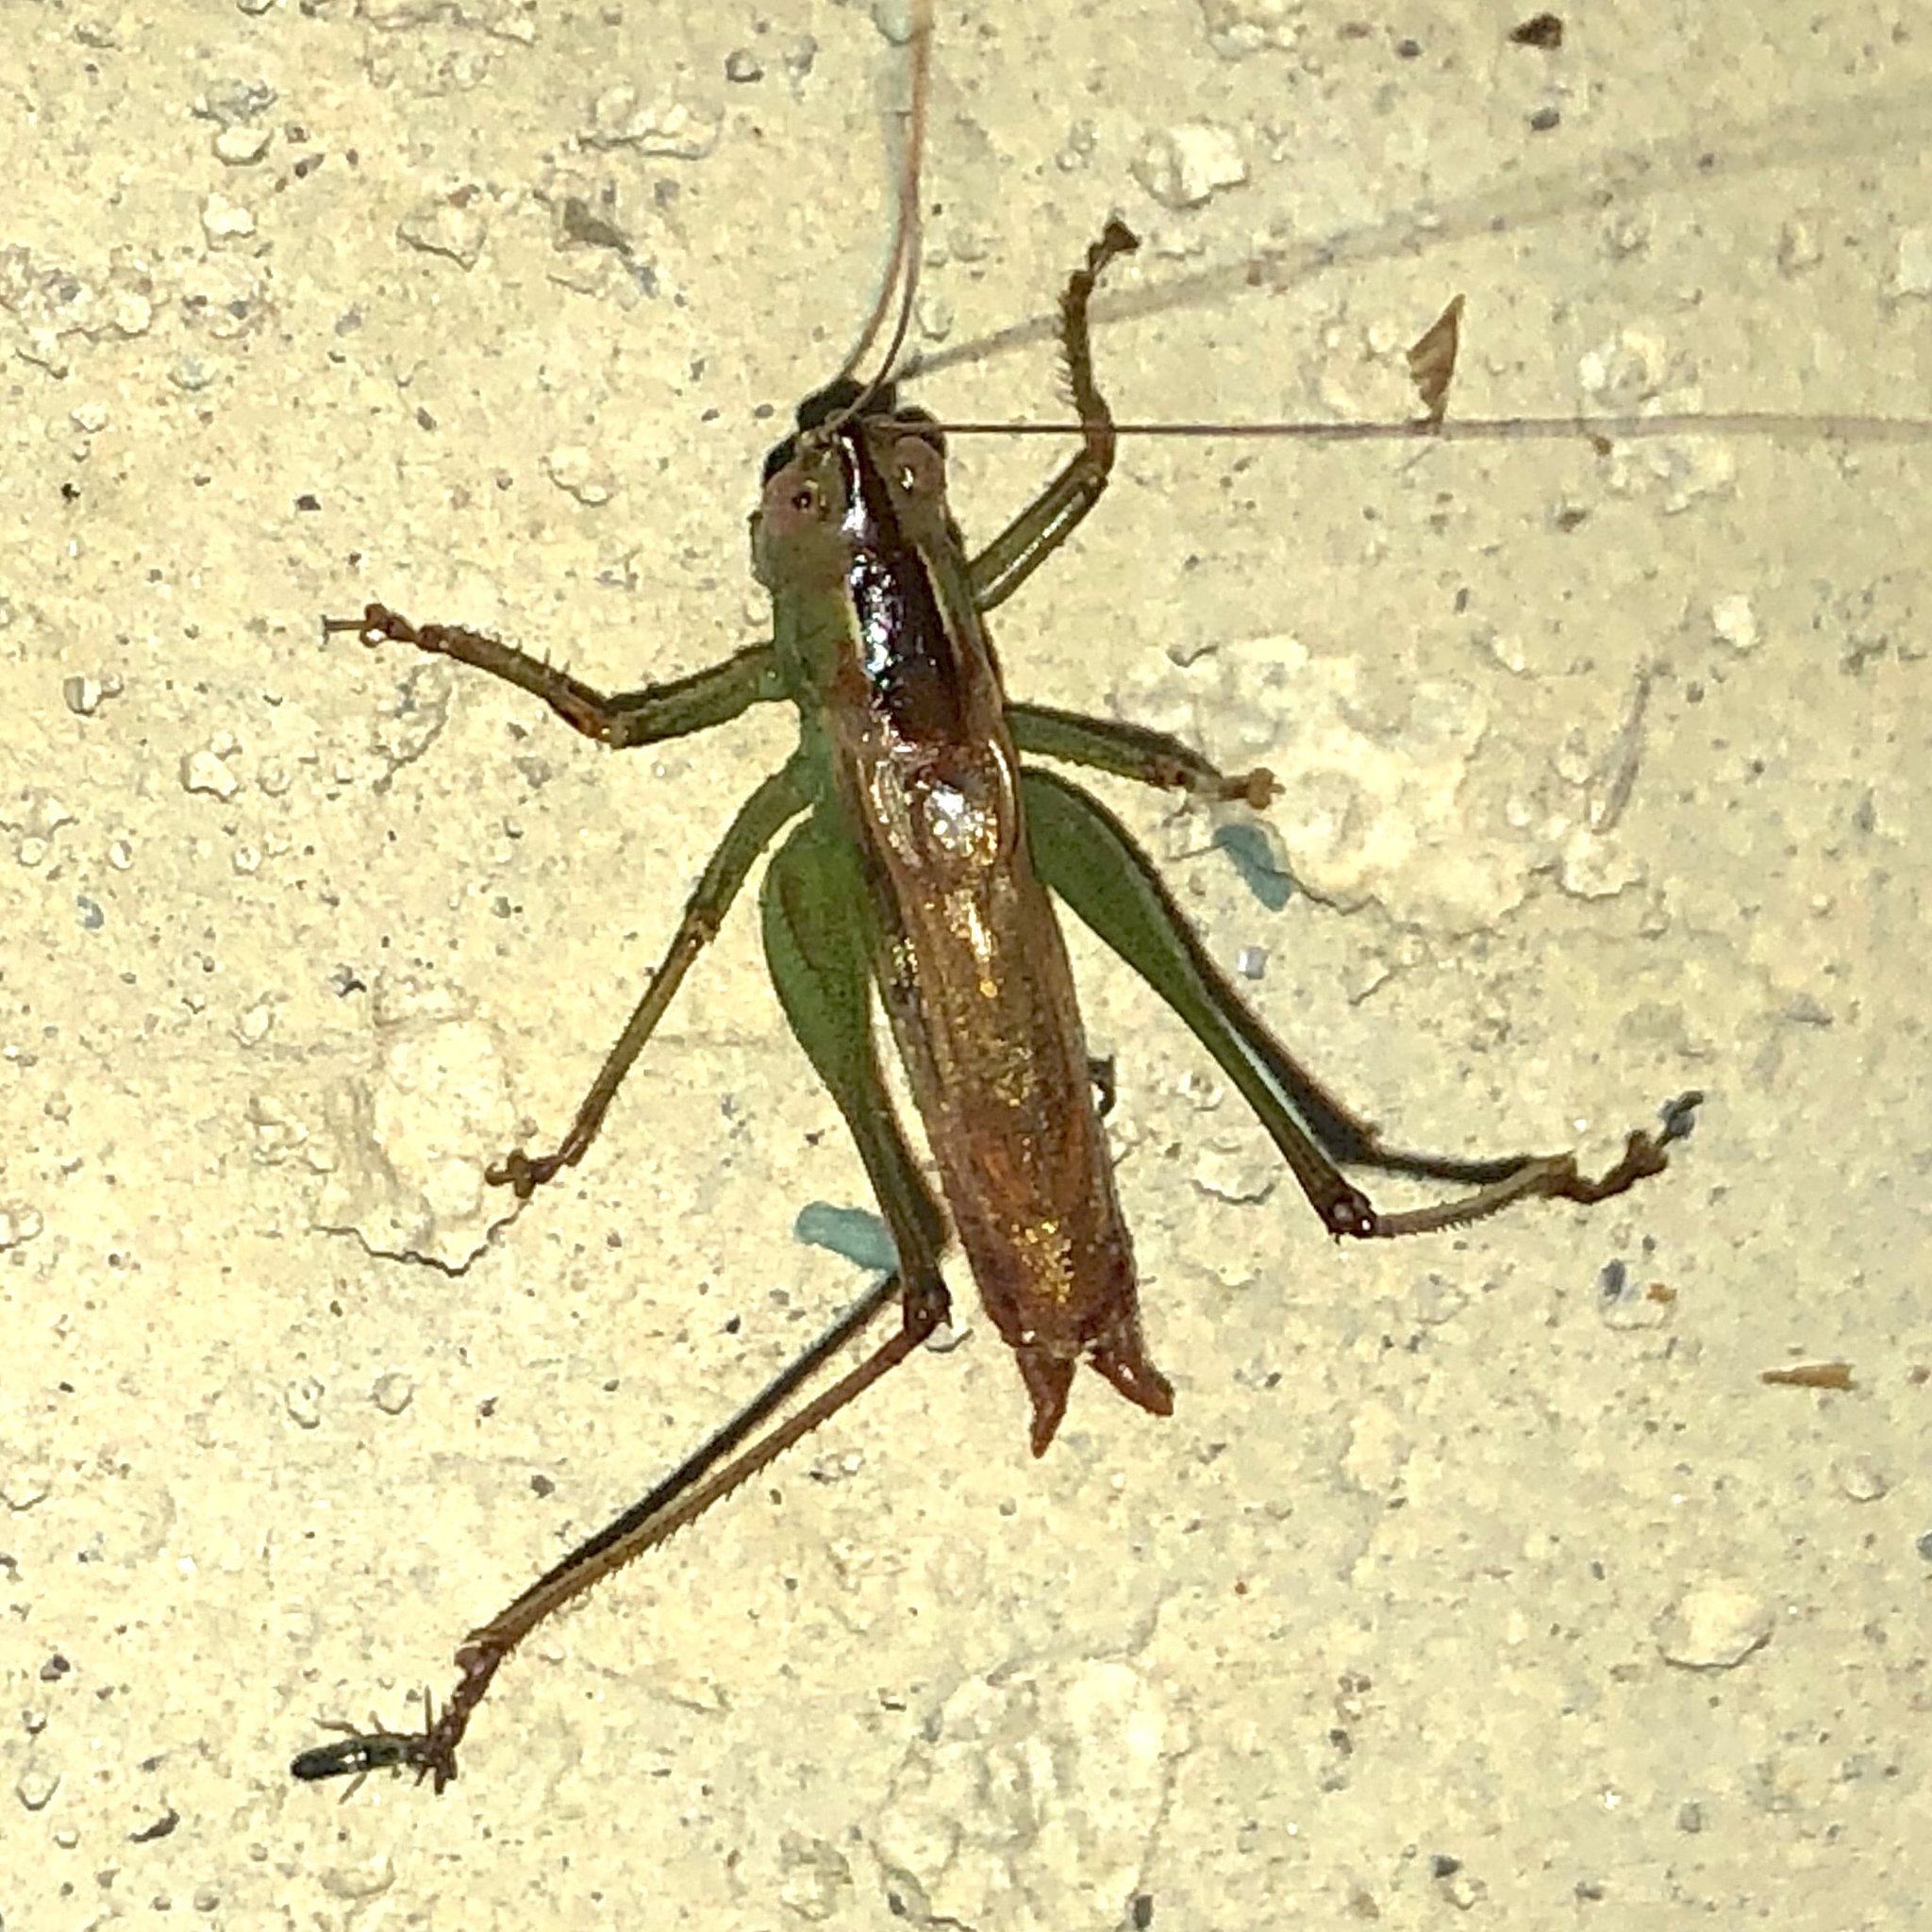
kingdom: Animalia
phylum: Arthropoda
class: Insecta
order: Orthoptera
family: Tettigoniidae
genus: Conocephalus
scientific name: Conocephalus brevipennis
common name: Short-winged meadow katydid
